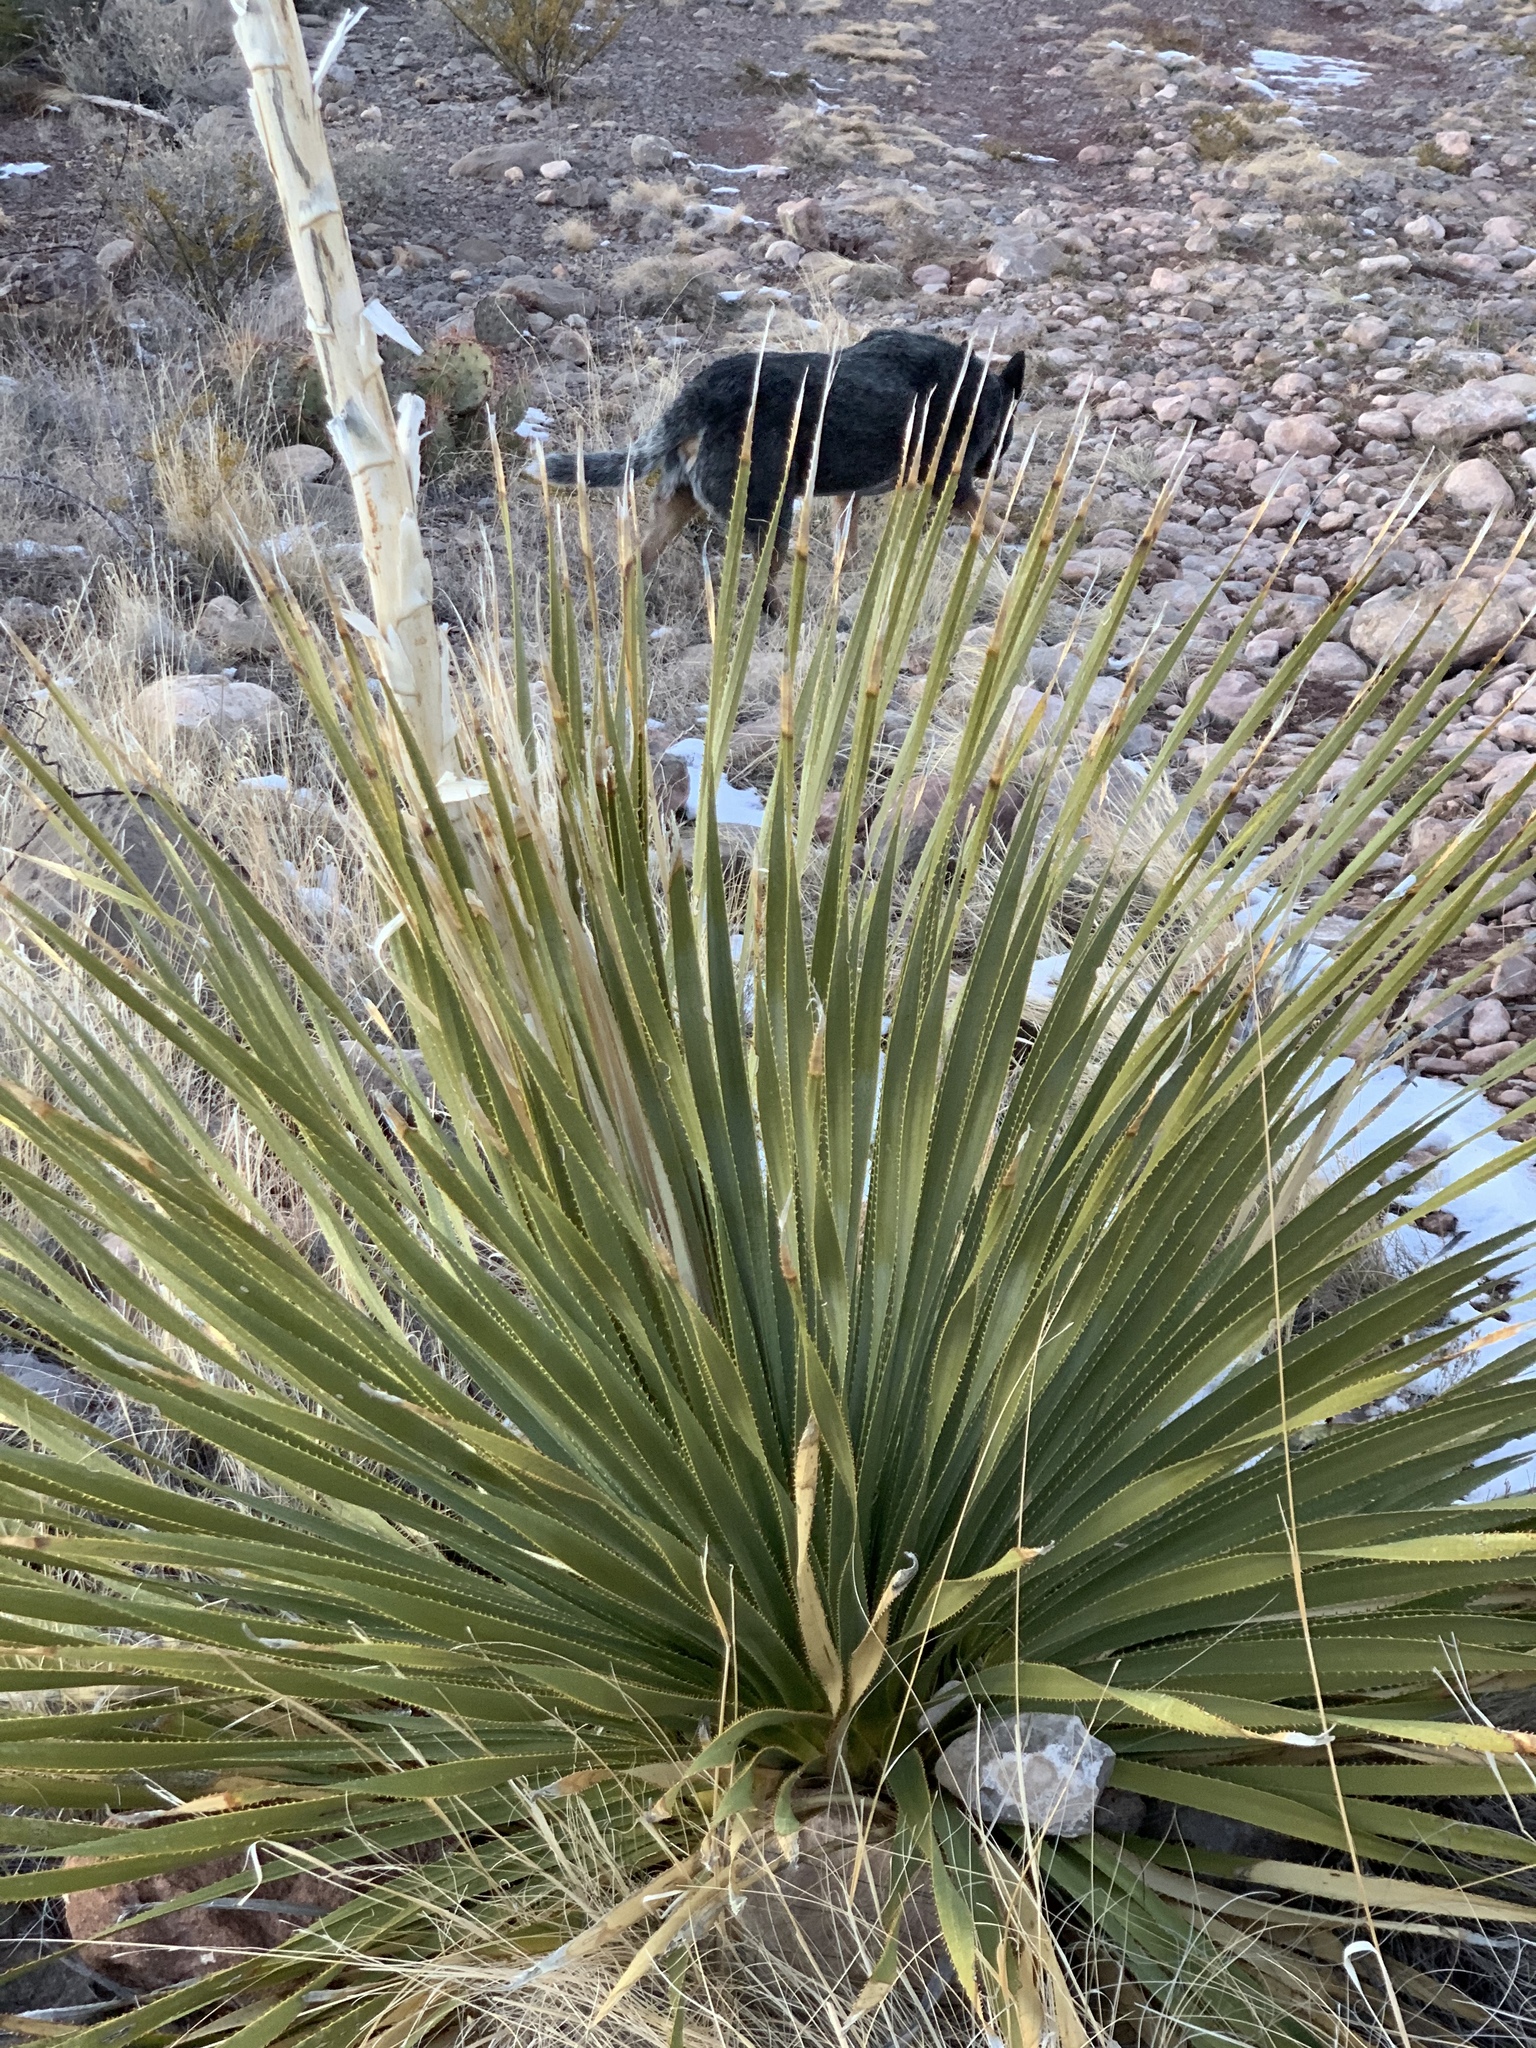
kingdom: Plantae
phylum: Tracheophyta
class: Liliopsida
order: Asparagales
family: Asparagaceae
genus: Dasylirion
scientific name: Dasylirion wheeleri
